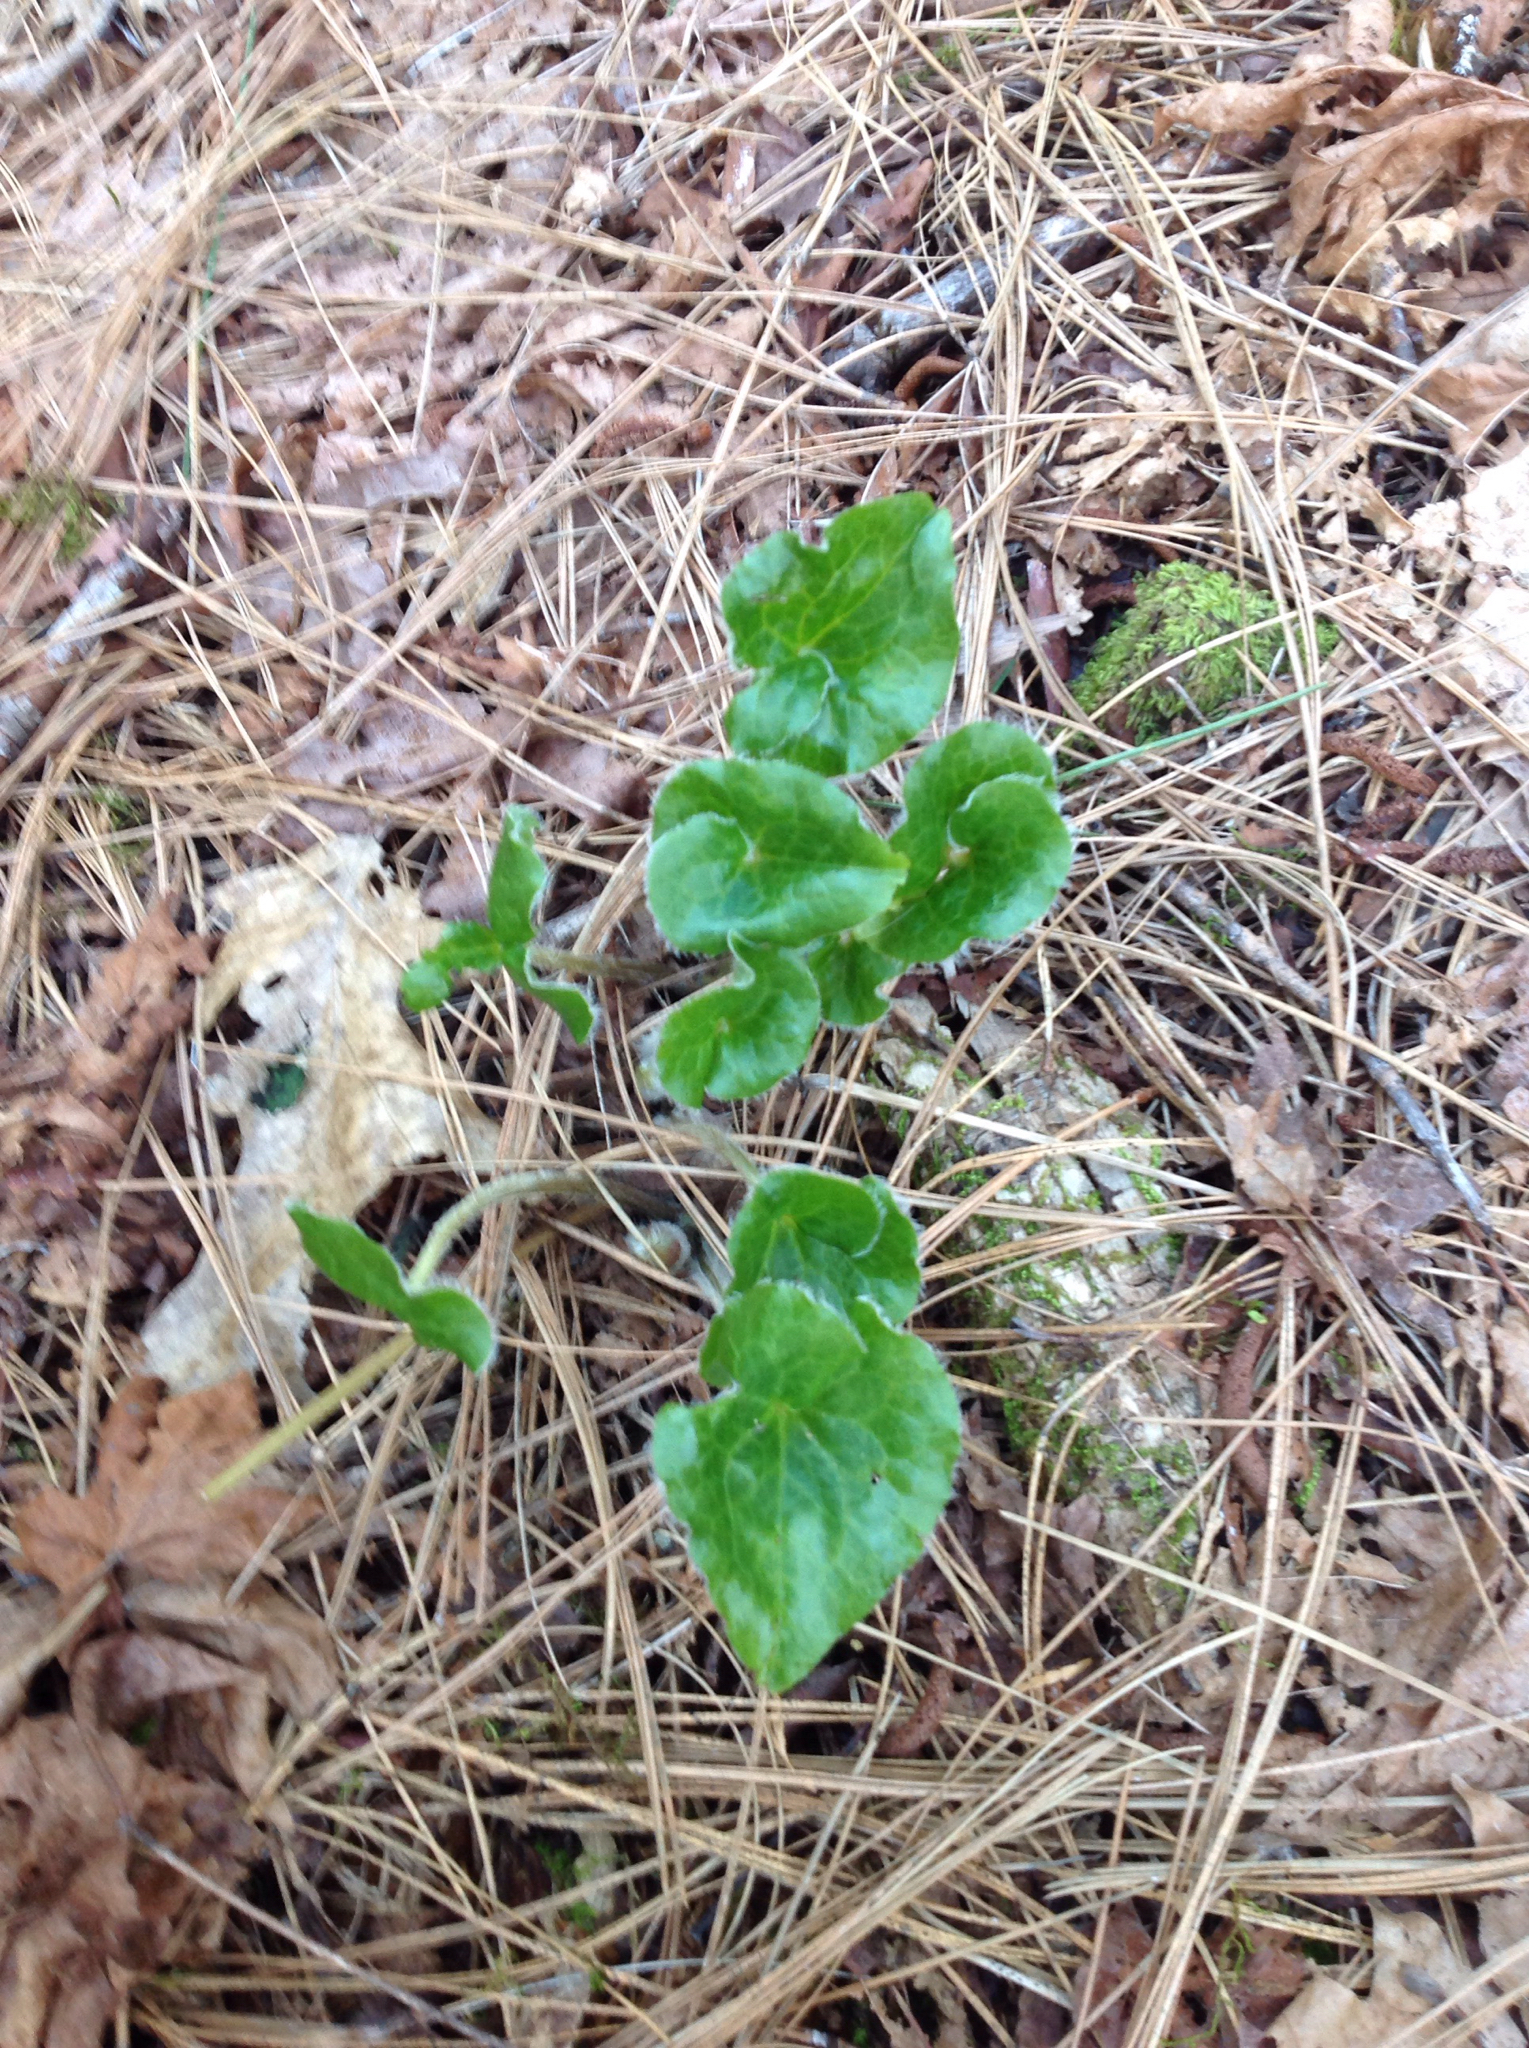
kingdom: Plantae
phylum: Tracheophyta
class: Magnoliopsida
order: Piperales
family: Aristolochiaceae
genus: Asarum
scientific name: Asarum hartwegii
